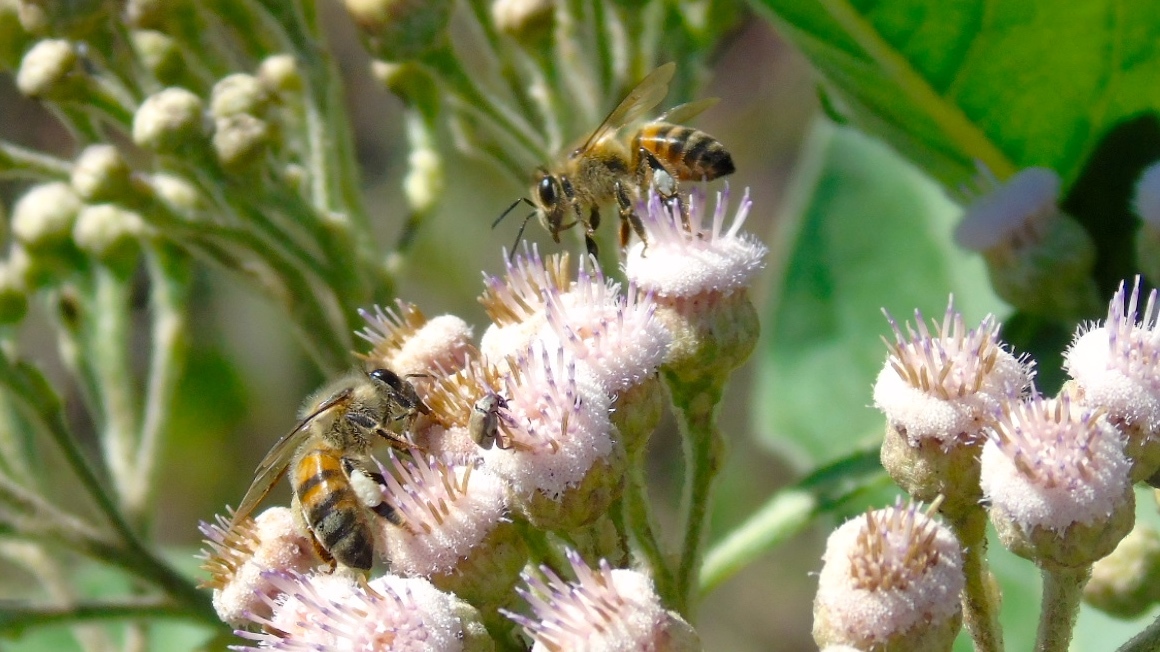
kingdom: Animalia
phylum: Arthropoda
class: Insecta
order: Hymenoptera
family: Apidae
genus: Apis
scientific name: Apis mellifera
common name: Honey bee
